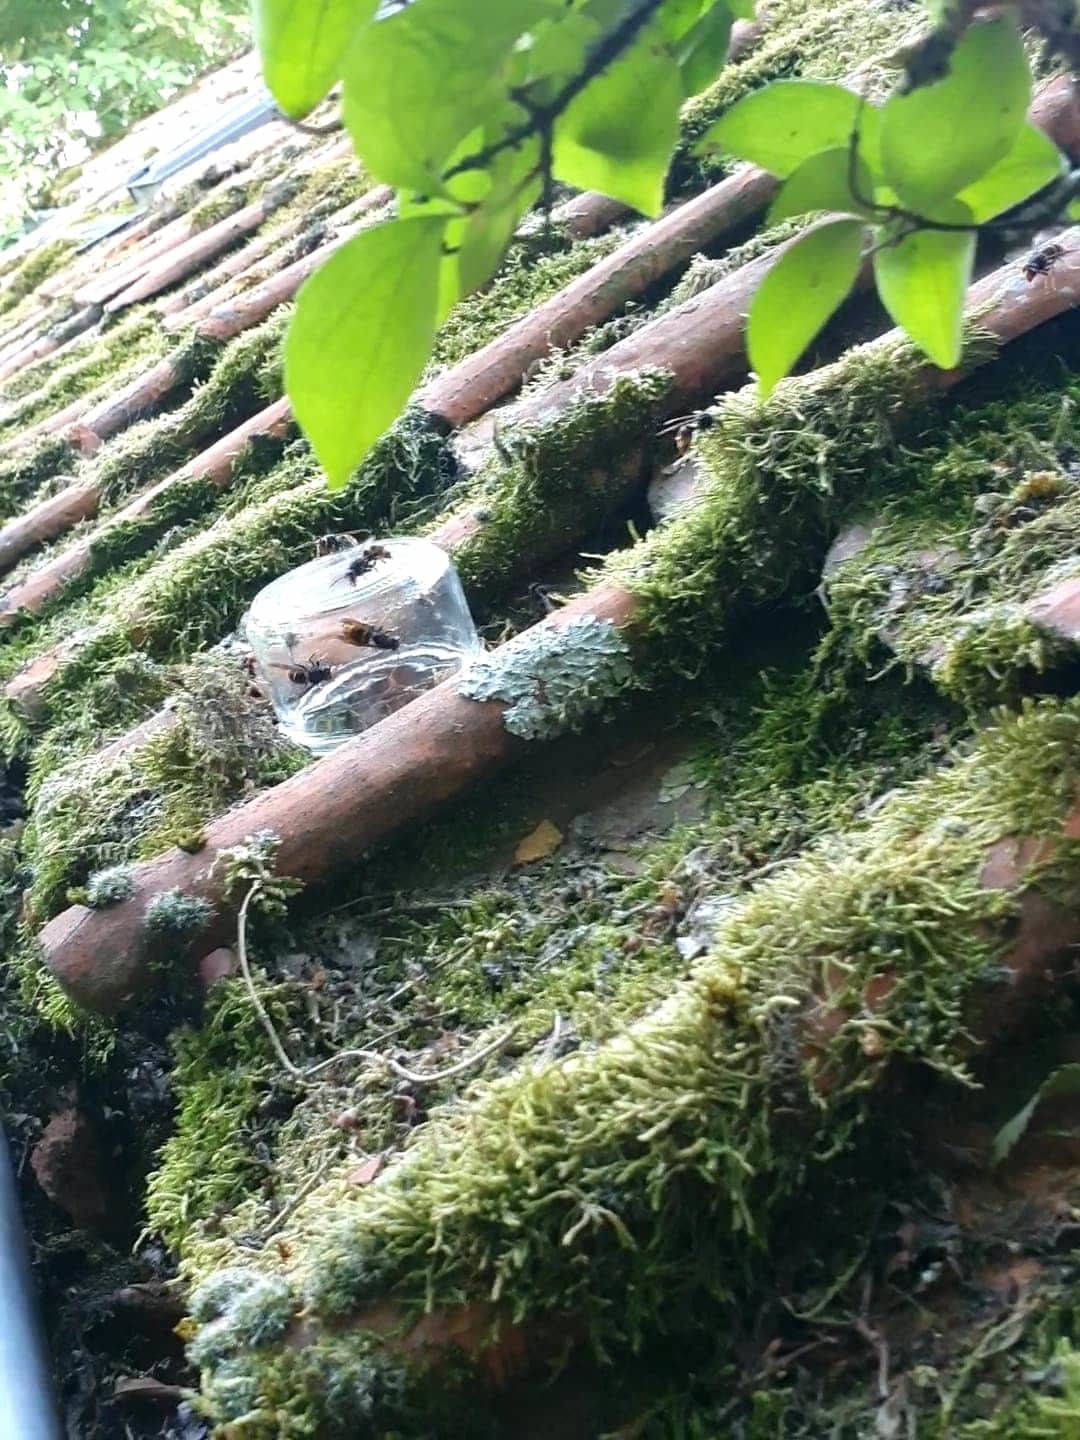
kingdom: Animalia
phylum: Arthropoda
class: Insecta
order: Hymenoptera
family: Vespidae
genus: Vespa
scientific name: Vespa velutina
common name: Asian hornet
